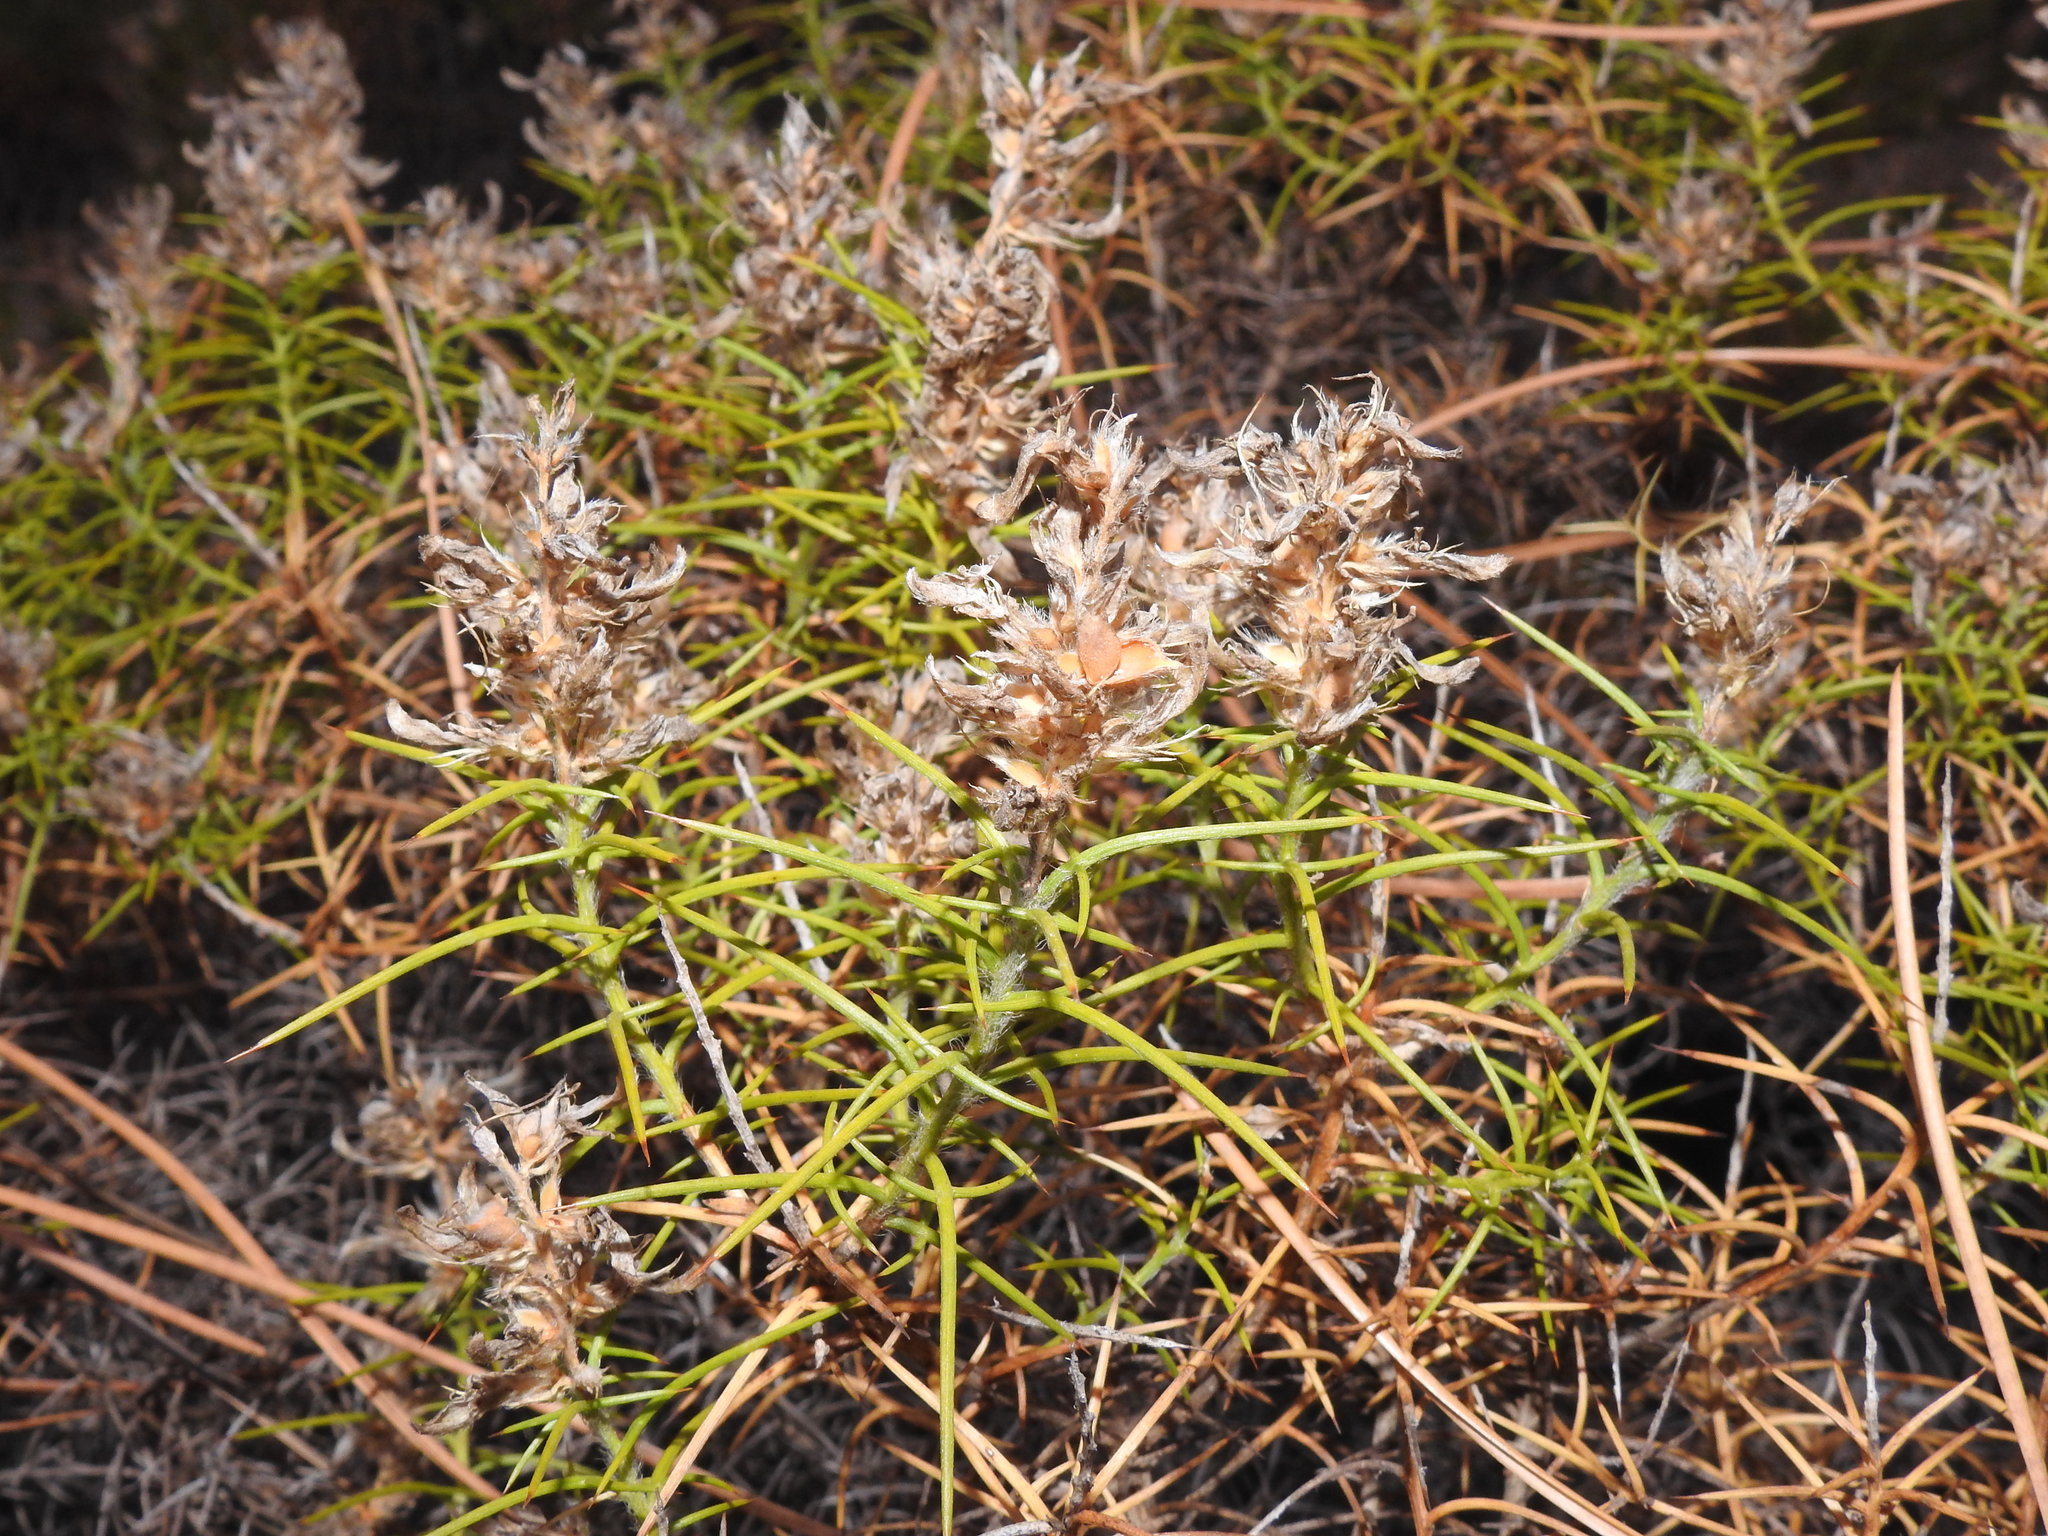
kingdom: Plantae
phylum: Tracheophyta
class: Magnoliopsida
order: Fabales
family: Fabaceae
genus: Genista
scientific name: Genista hirsuta
